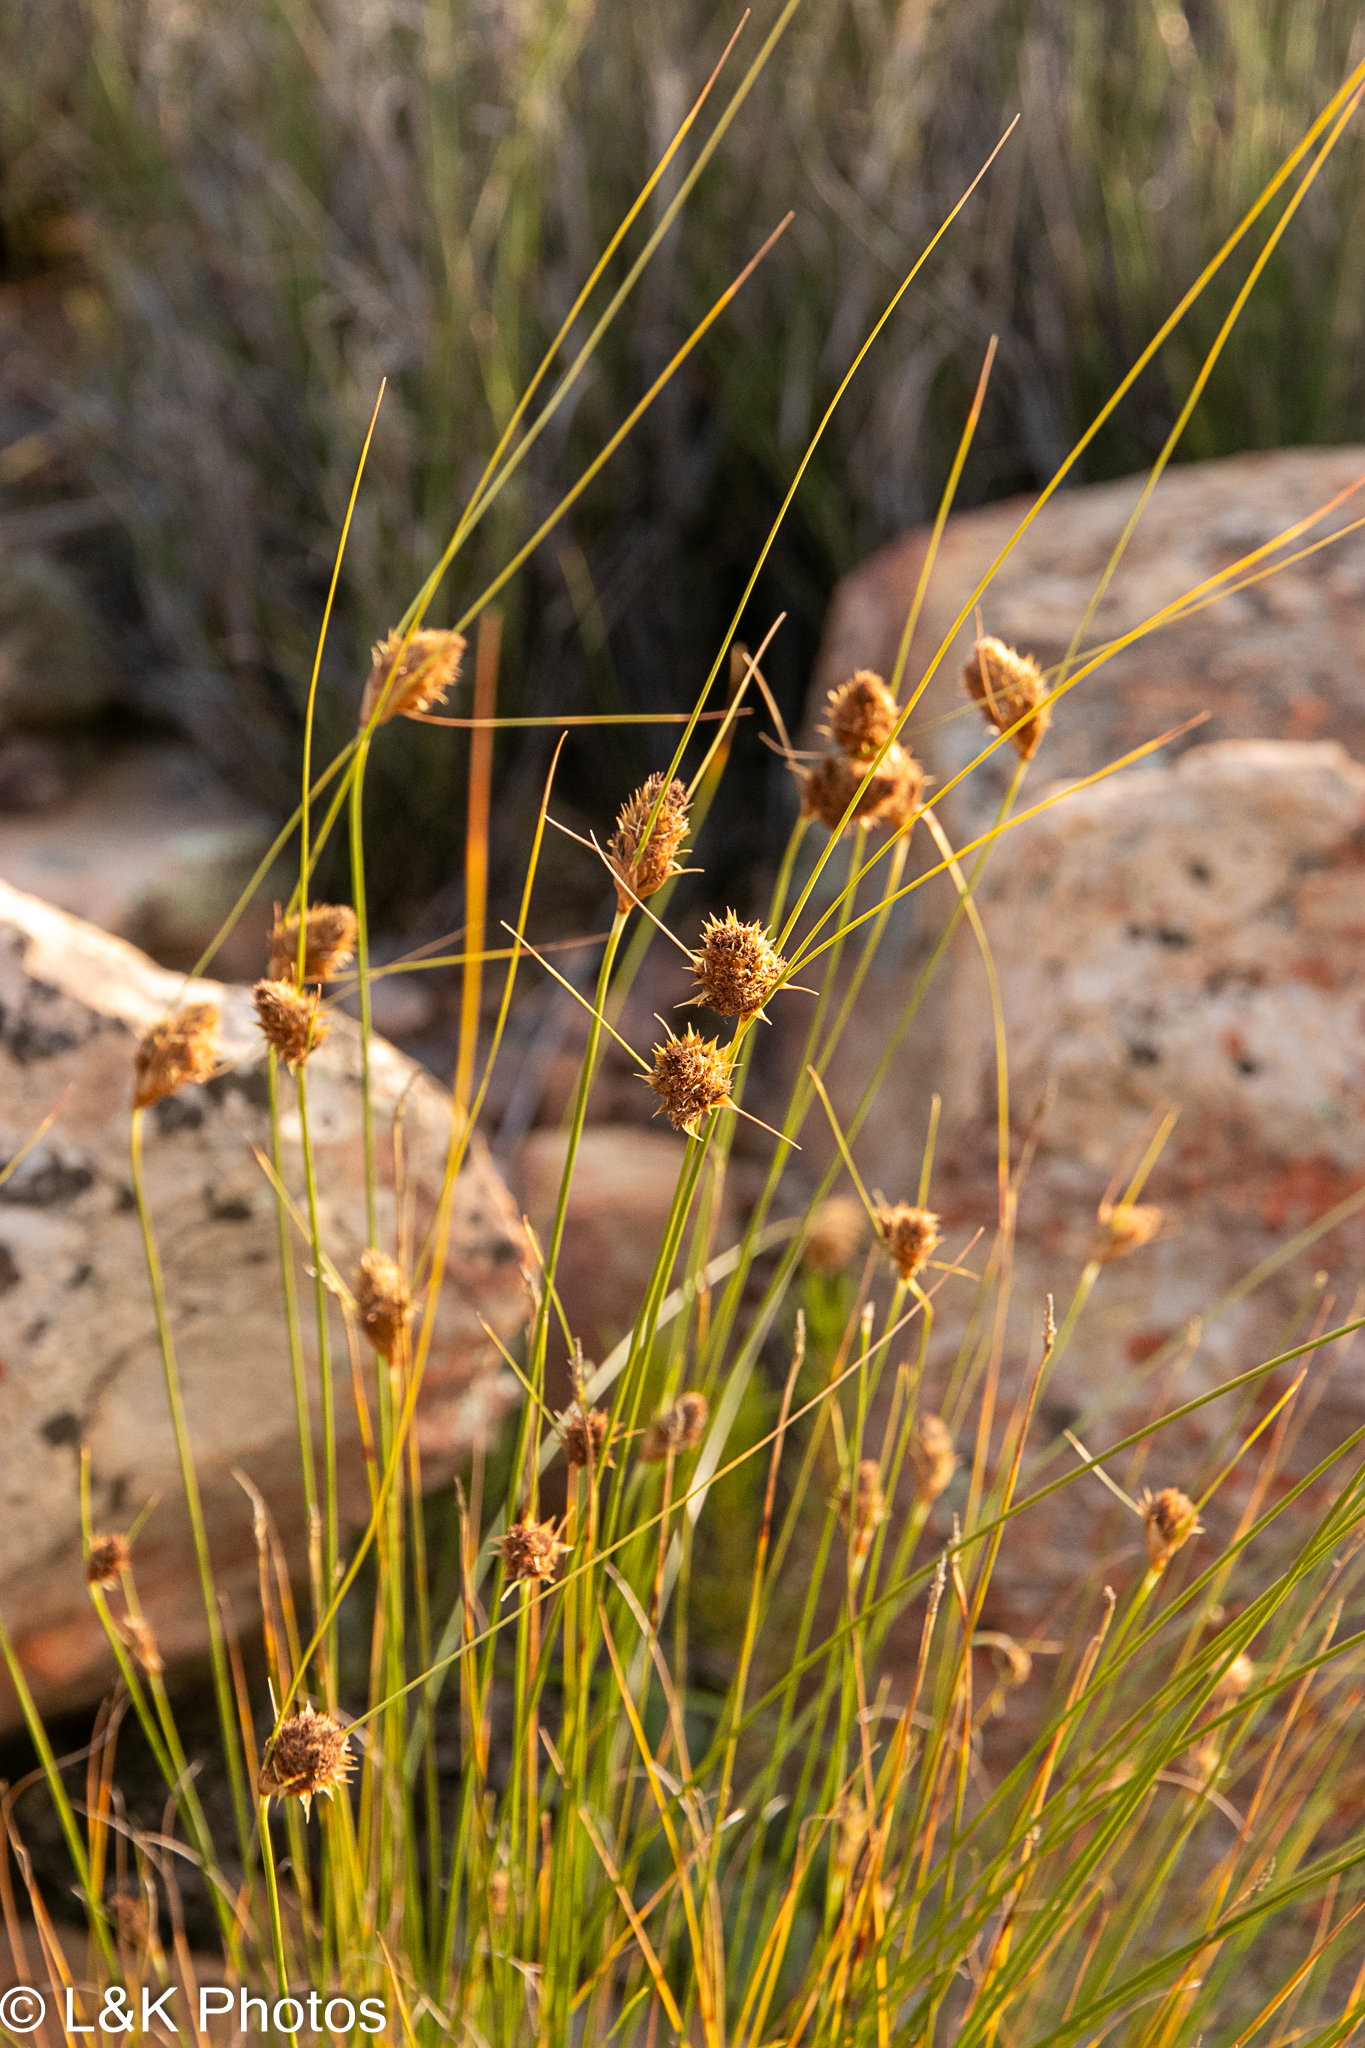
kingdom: Plantae
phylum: Tracheophyta
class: Liliopsida
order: Poales
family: Cyperaceae
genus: Ficinia
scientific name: Ficinia nigrescens
